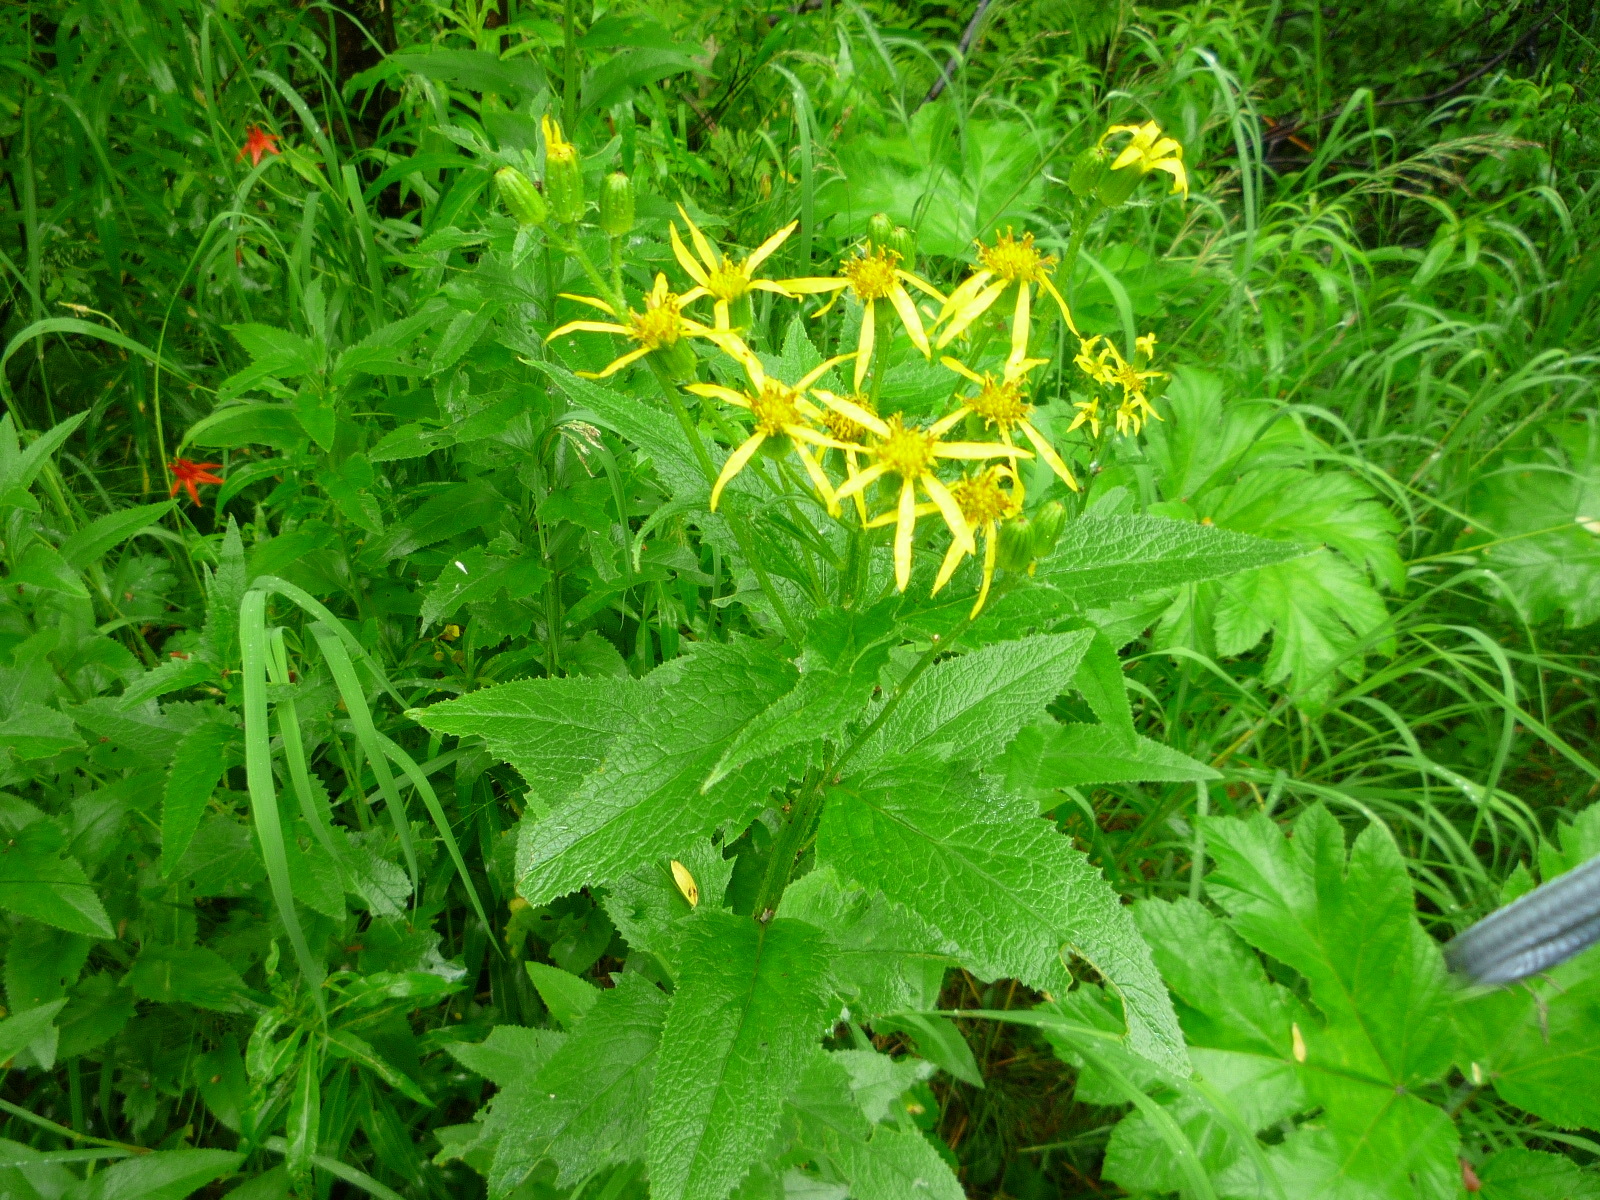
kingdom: Plantae
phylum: Tracheophyta
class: Magnoliopsida
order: Asterales
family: Asteraceae
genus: Senecio
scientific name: Senecio triangularis
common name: Arrowleaf butterweed
